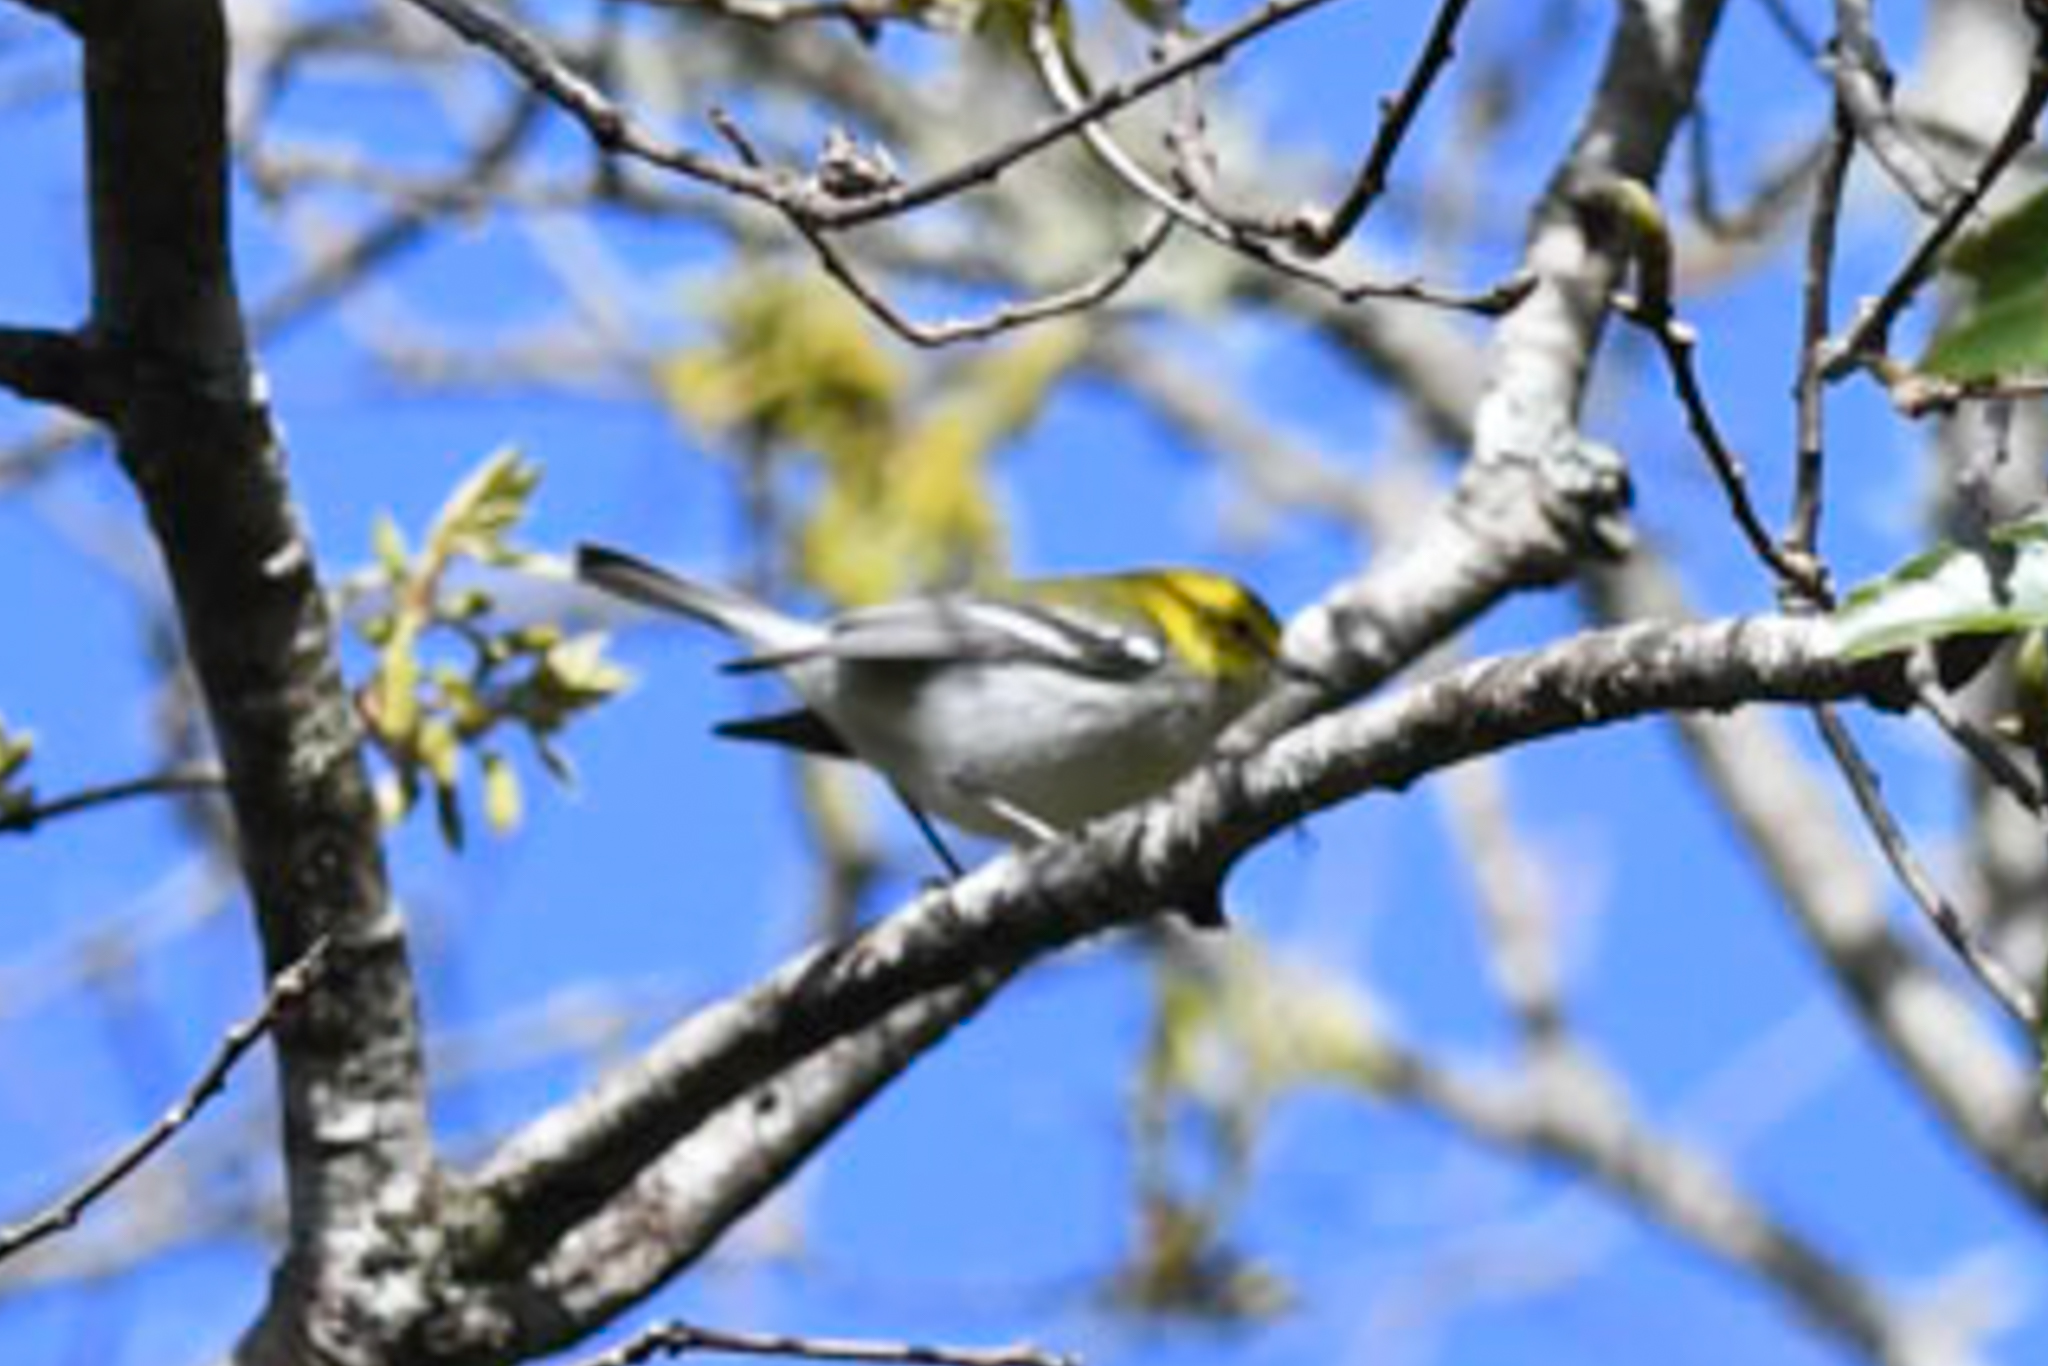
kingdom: Animalia
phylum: Chordata
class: Aves
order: Passeriformes
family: Parulidae
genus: Setophaga
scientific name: Setophaga virens
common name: Black-throated green warbler
